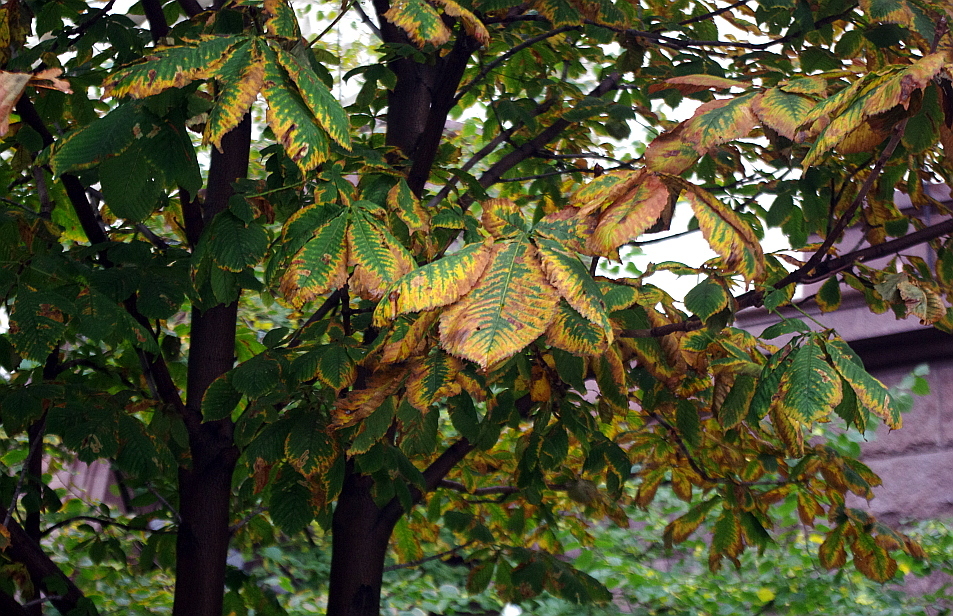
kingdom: Fungi
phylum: Ascomycota
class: Dothideomycetes
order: Botryosphaeriales
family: Phyllostictaceae
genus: Phyllosticta
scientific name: Phyllosticta paviae
